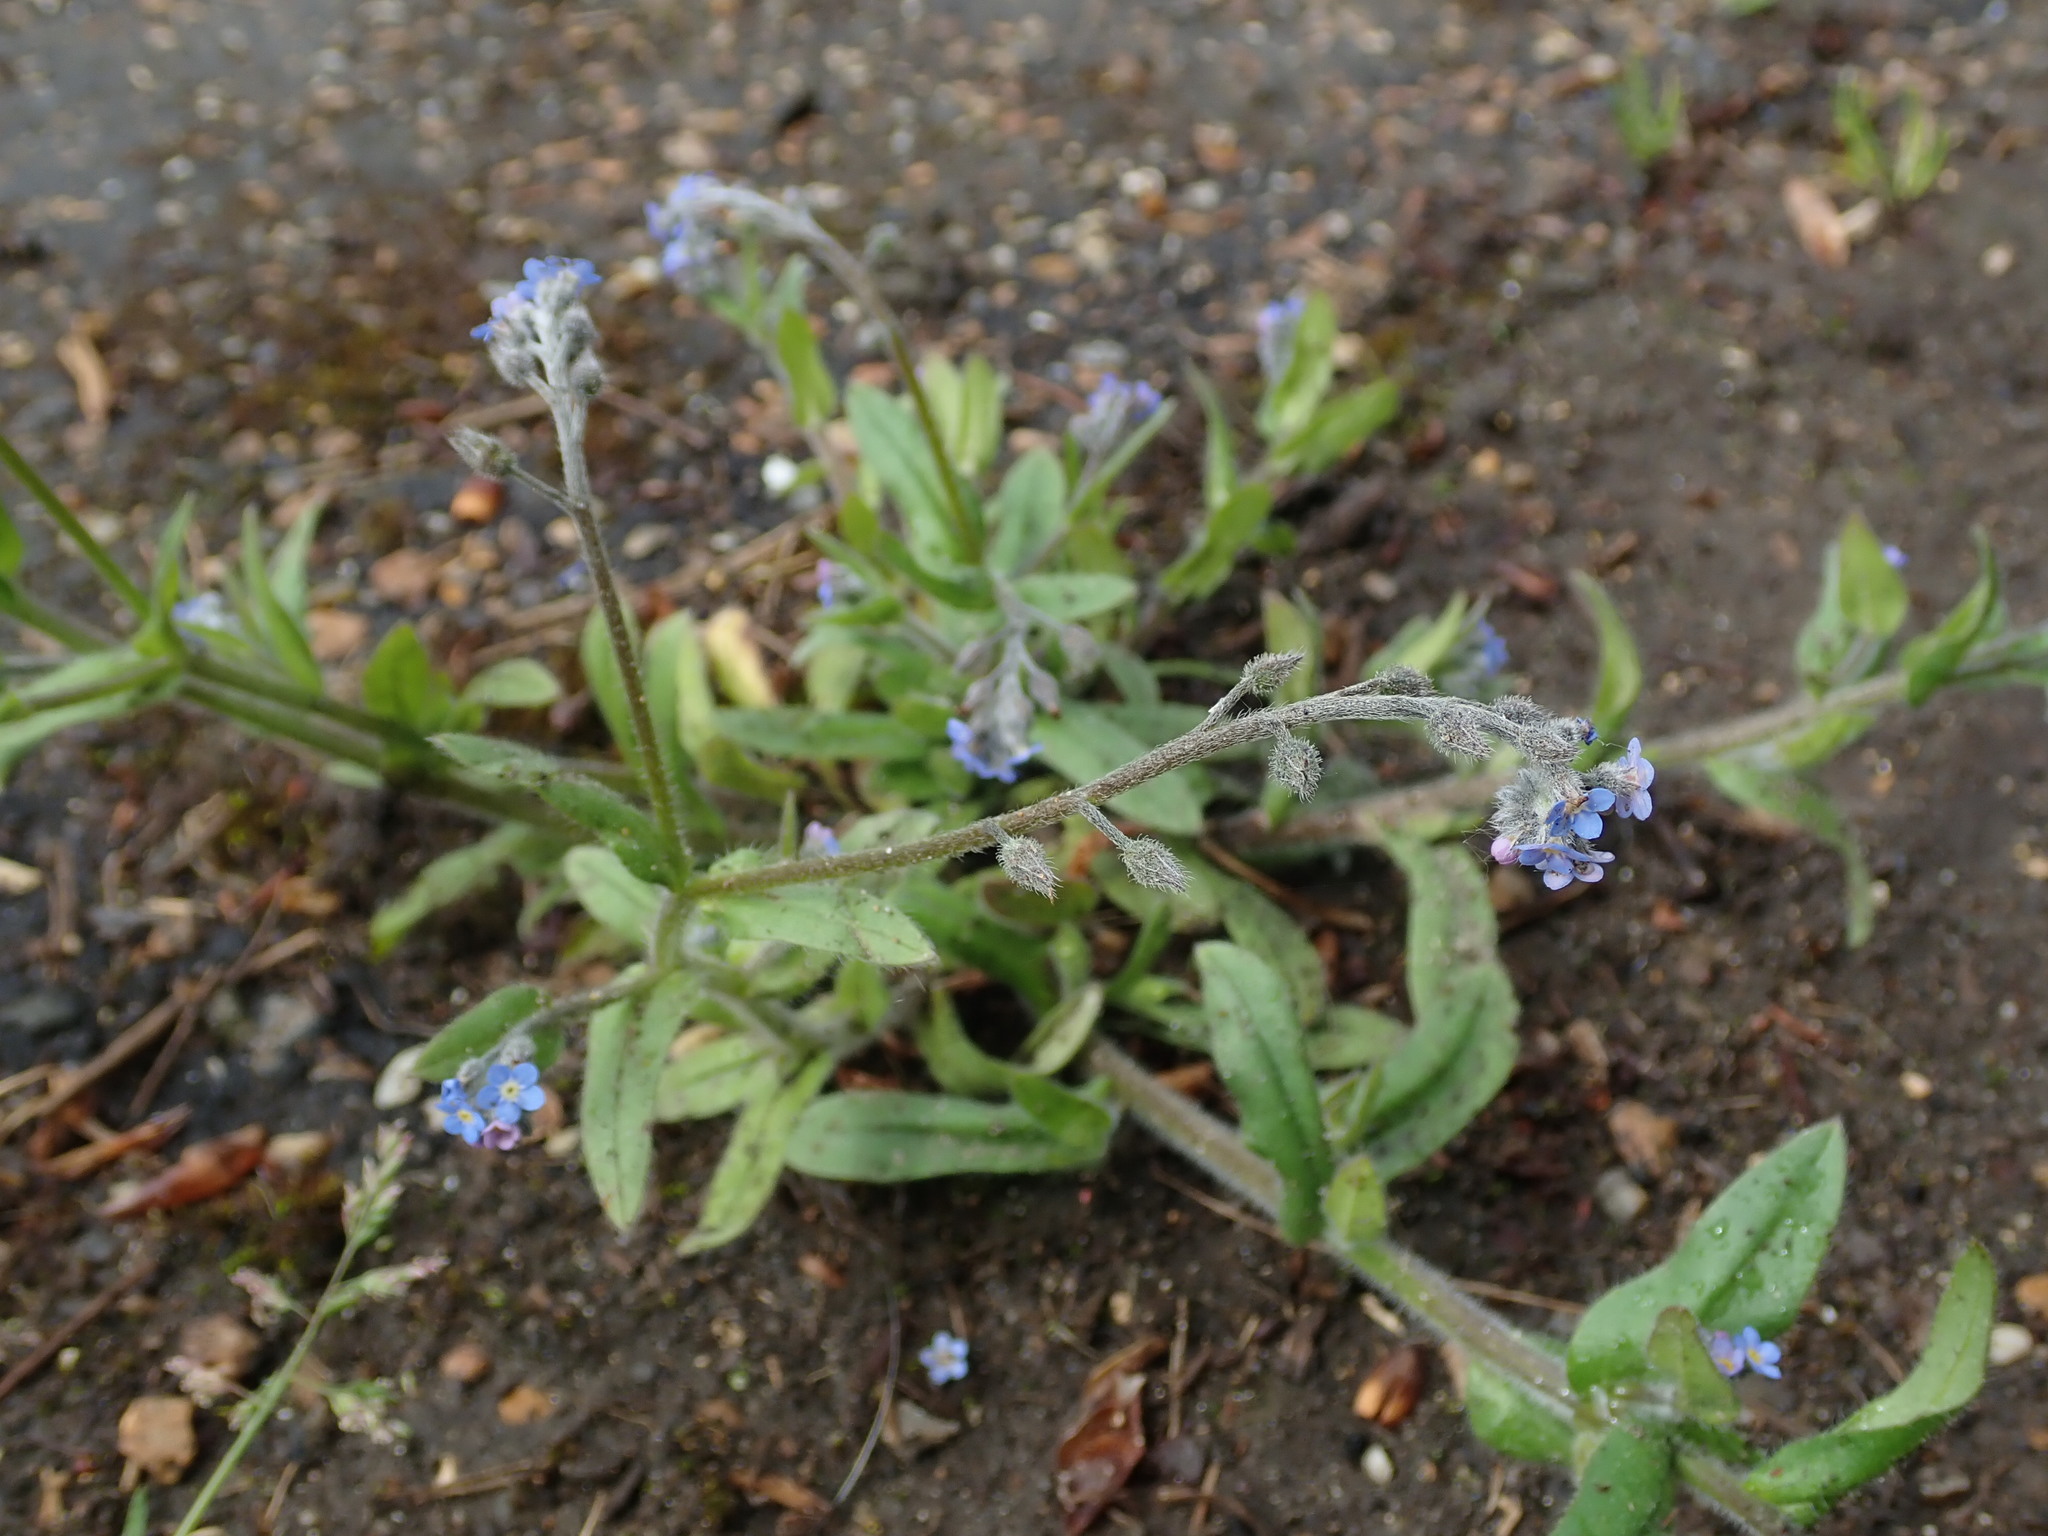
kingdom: Plantae
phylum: Tracheophyta
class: Magnoliopsida
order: Boraginales
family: Boraginaceae
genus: Myosotis
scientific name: Myosotis arvensis
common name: Field forget-me-not
